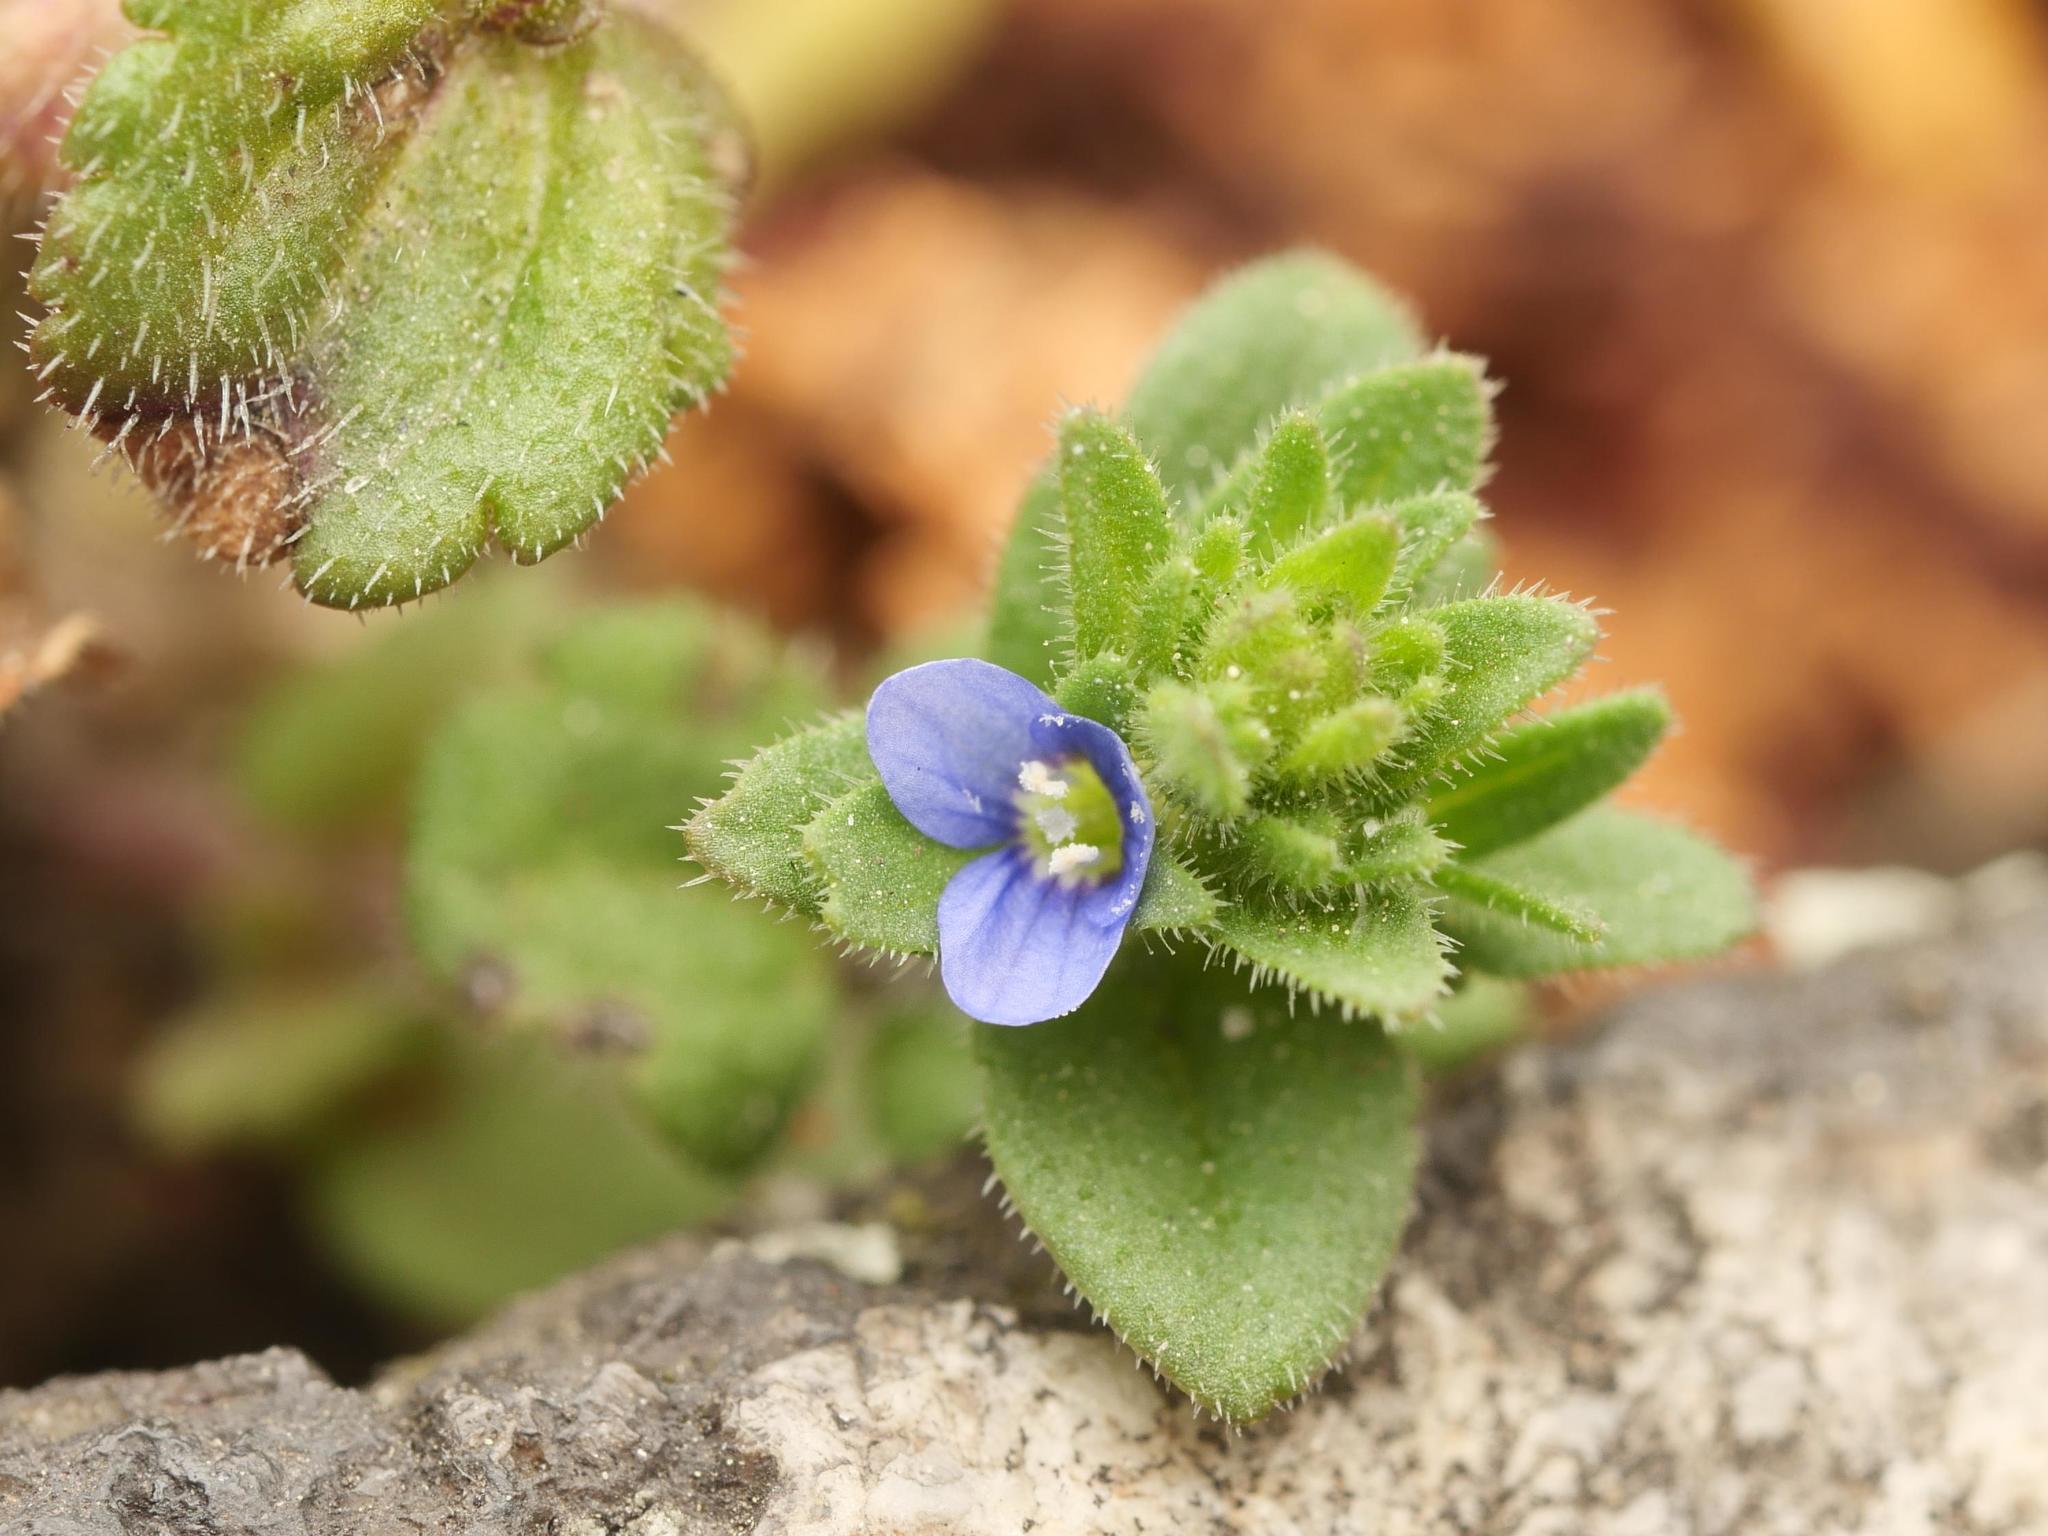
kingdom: Plantae
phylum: Tracheophyta
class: Magnoliopsida
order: Lamiales
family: Plantaginaceae
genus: Veronica
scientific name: Veronica arvensis
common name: Corn speedwell
